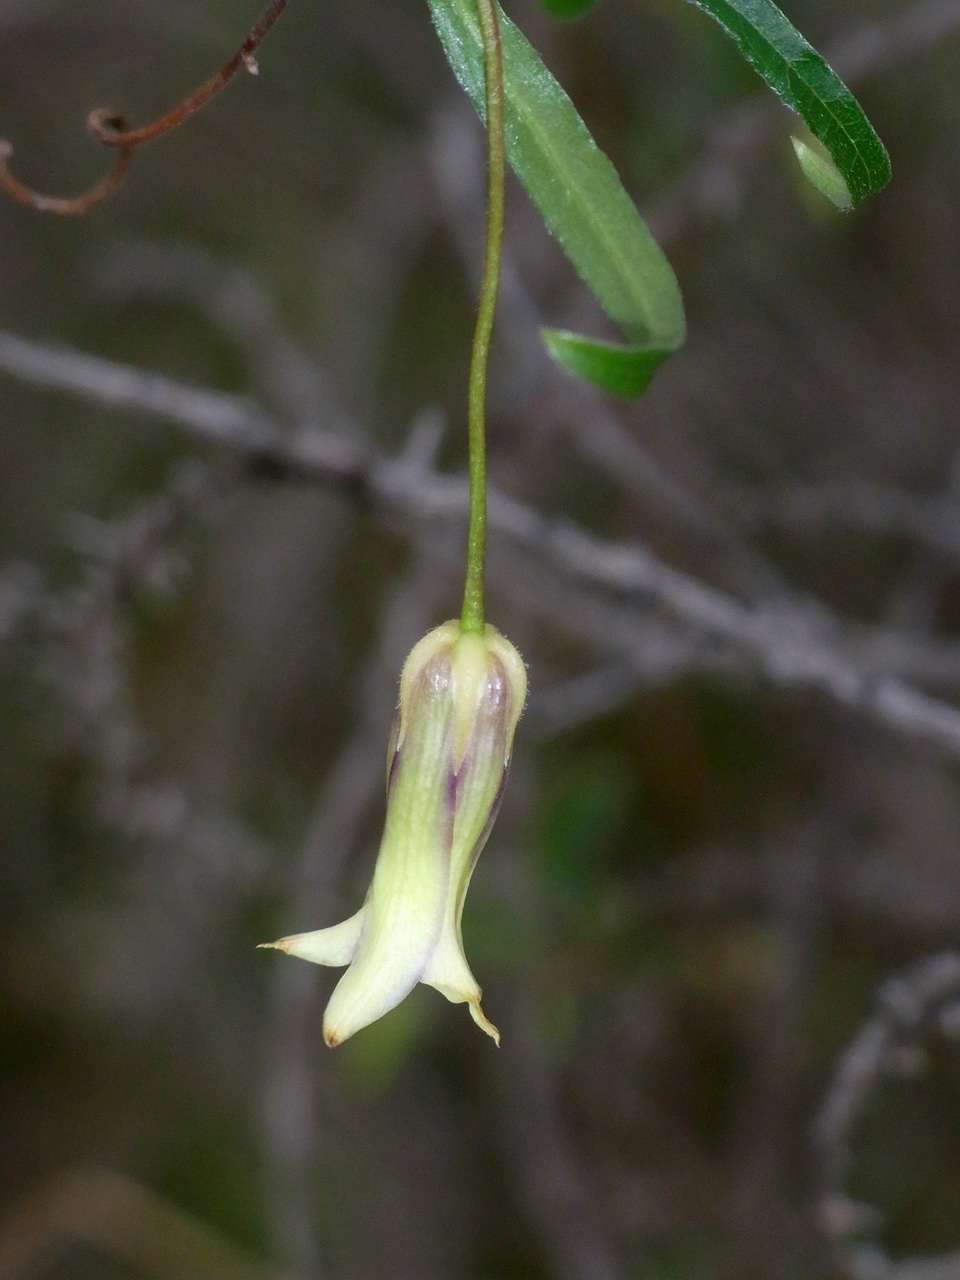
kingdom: Plantae
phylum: Tracheophyta
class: Magnoliopsida
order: Apiales
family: Pittosporaceae
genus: Billardiera
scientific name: Billardiera mutabilis
